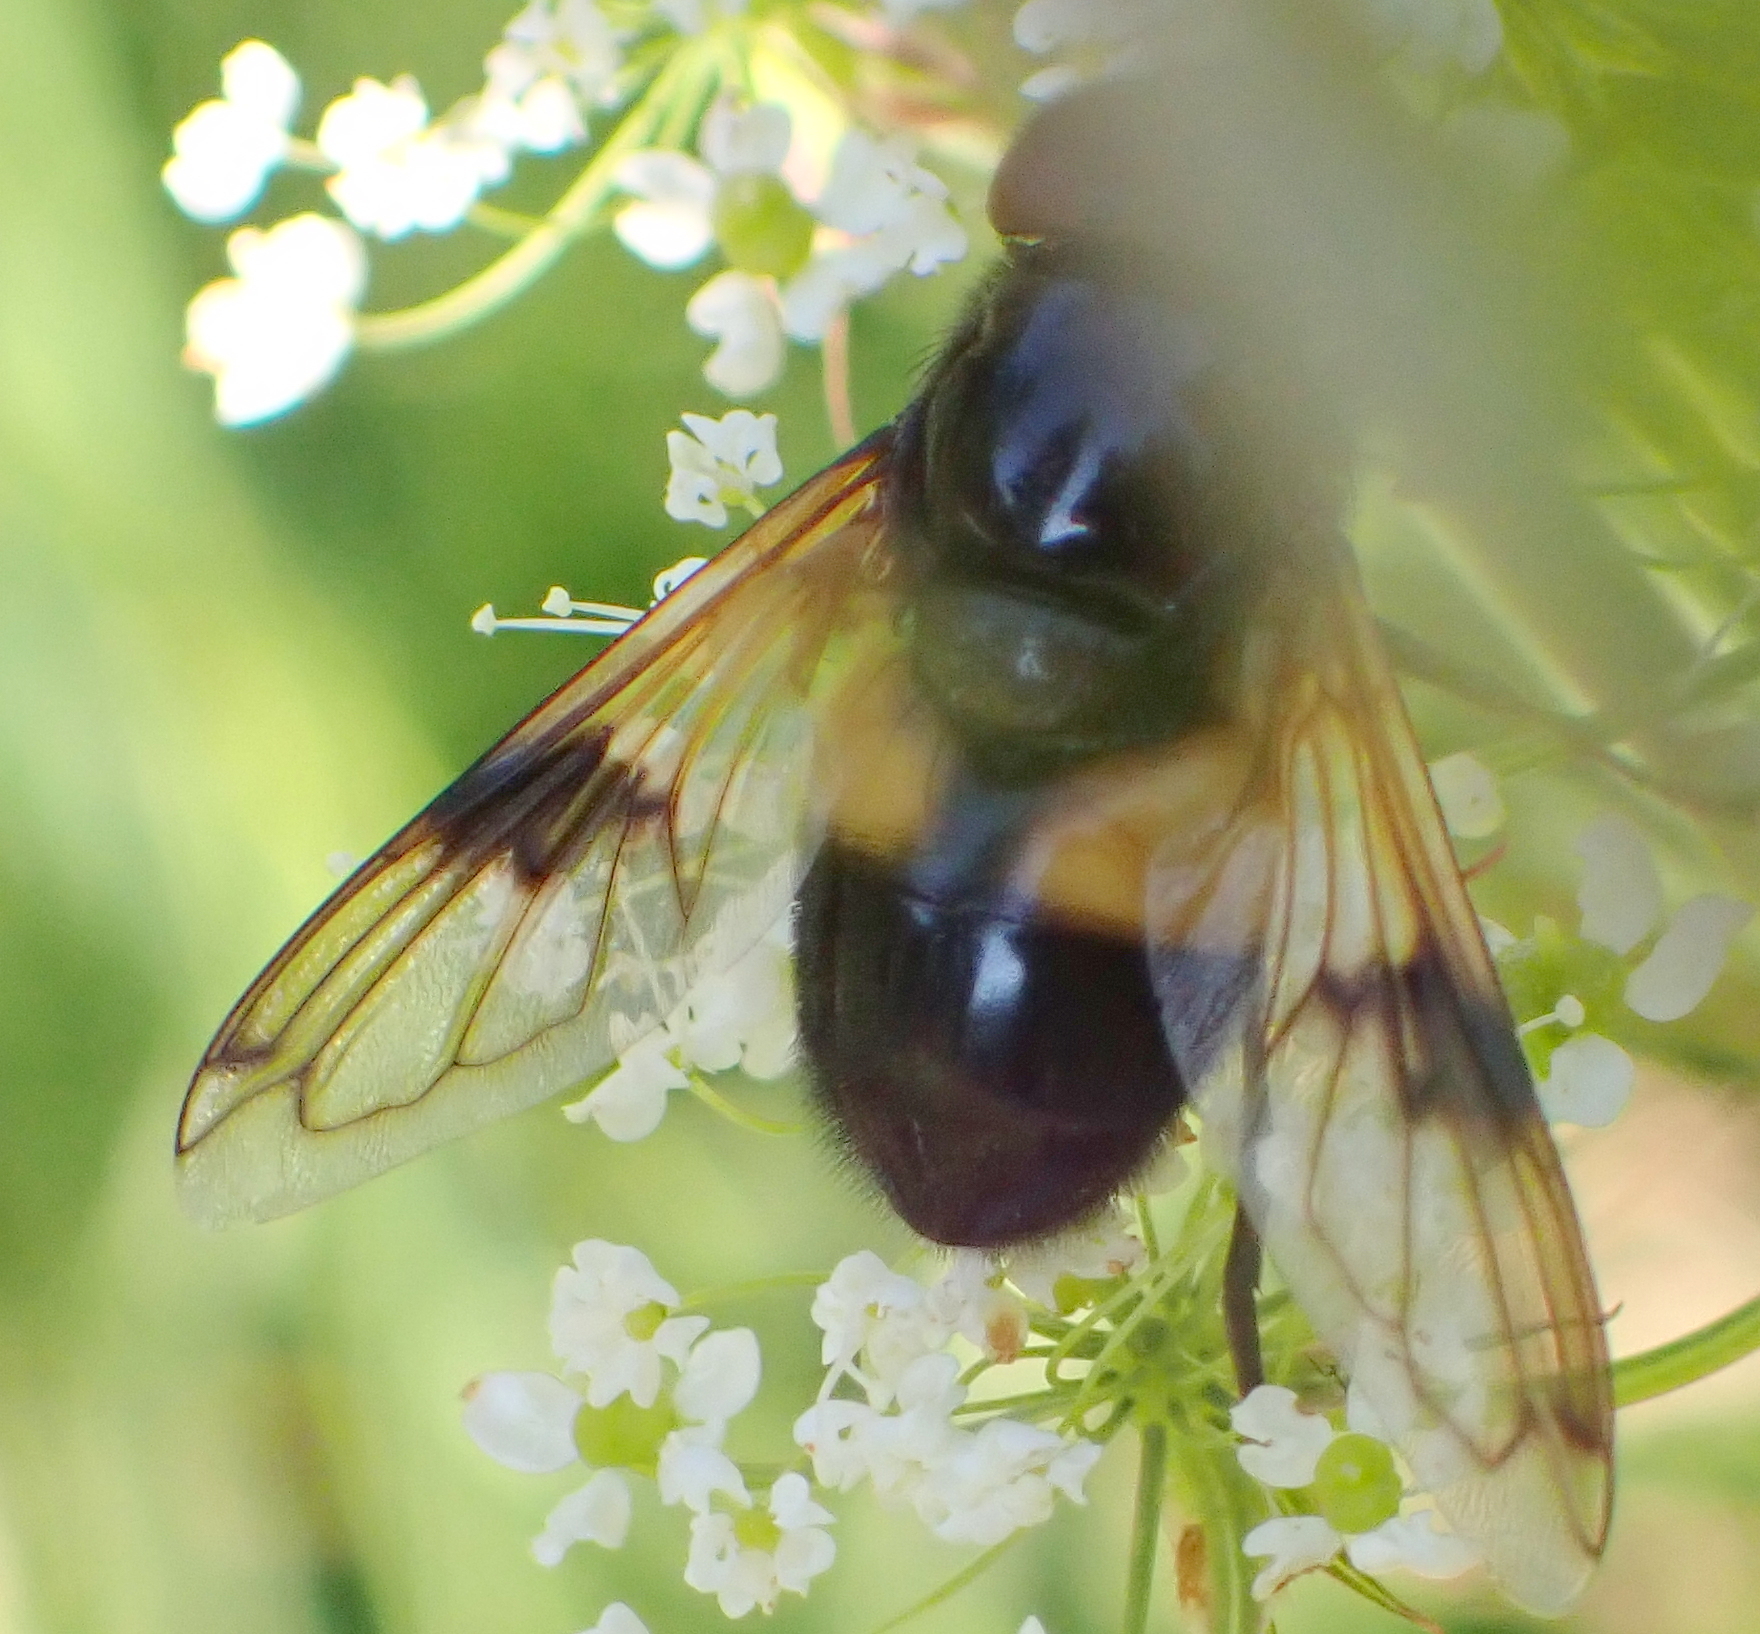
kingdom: Animalia
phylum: Arthropoda
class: Insecta
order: Diptera
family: Syrphidae
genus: Volucella
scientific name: Volucella pellucens
